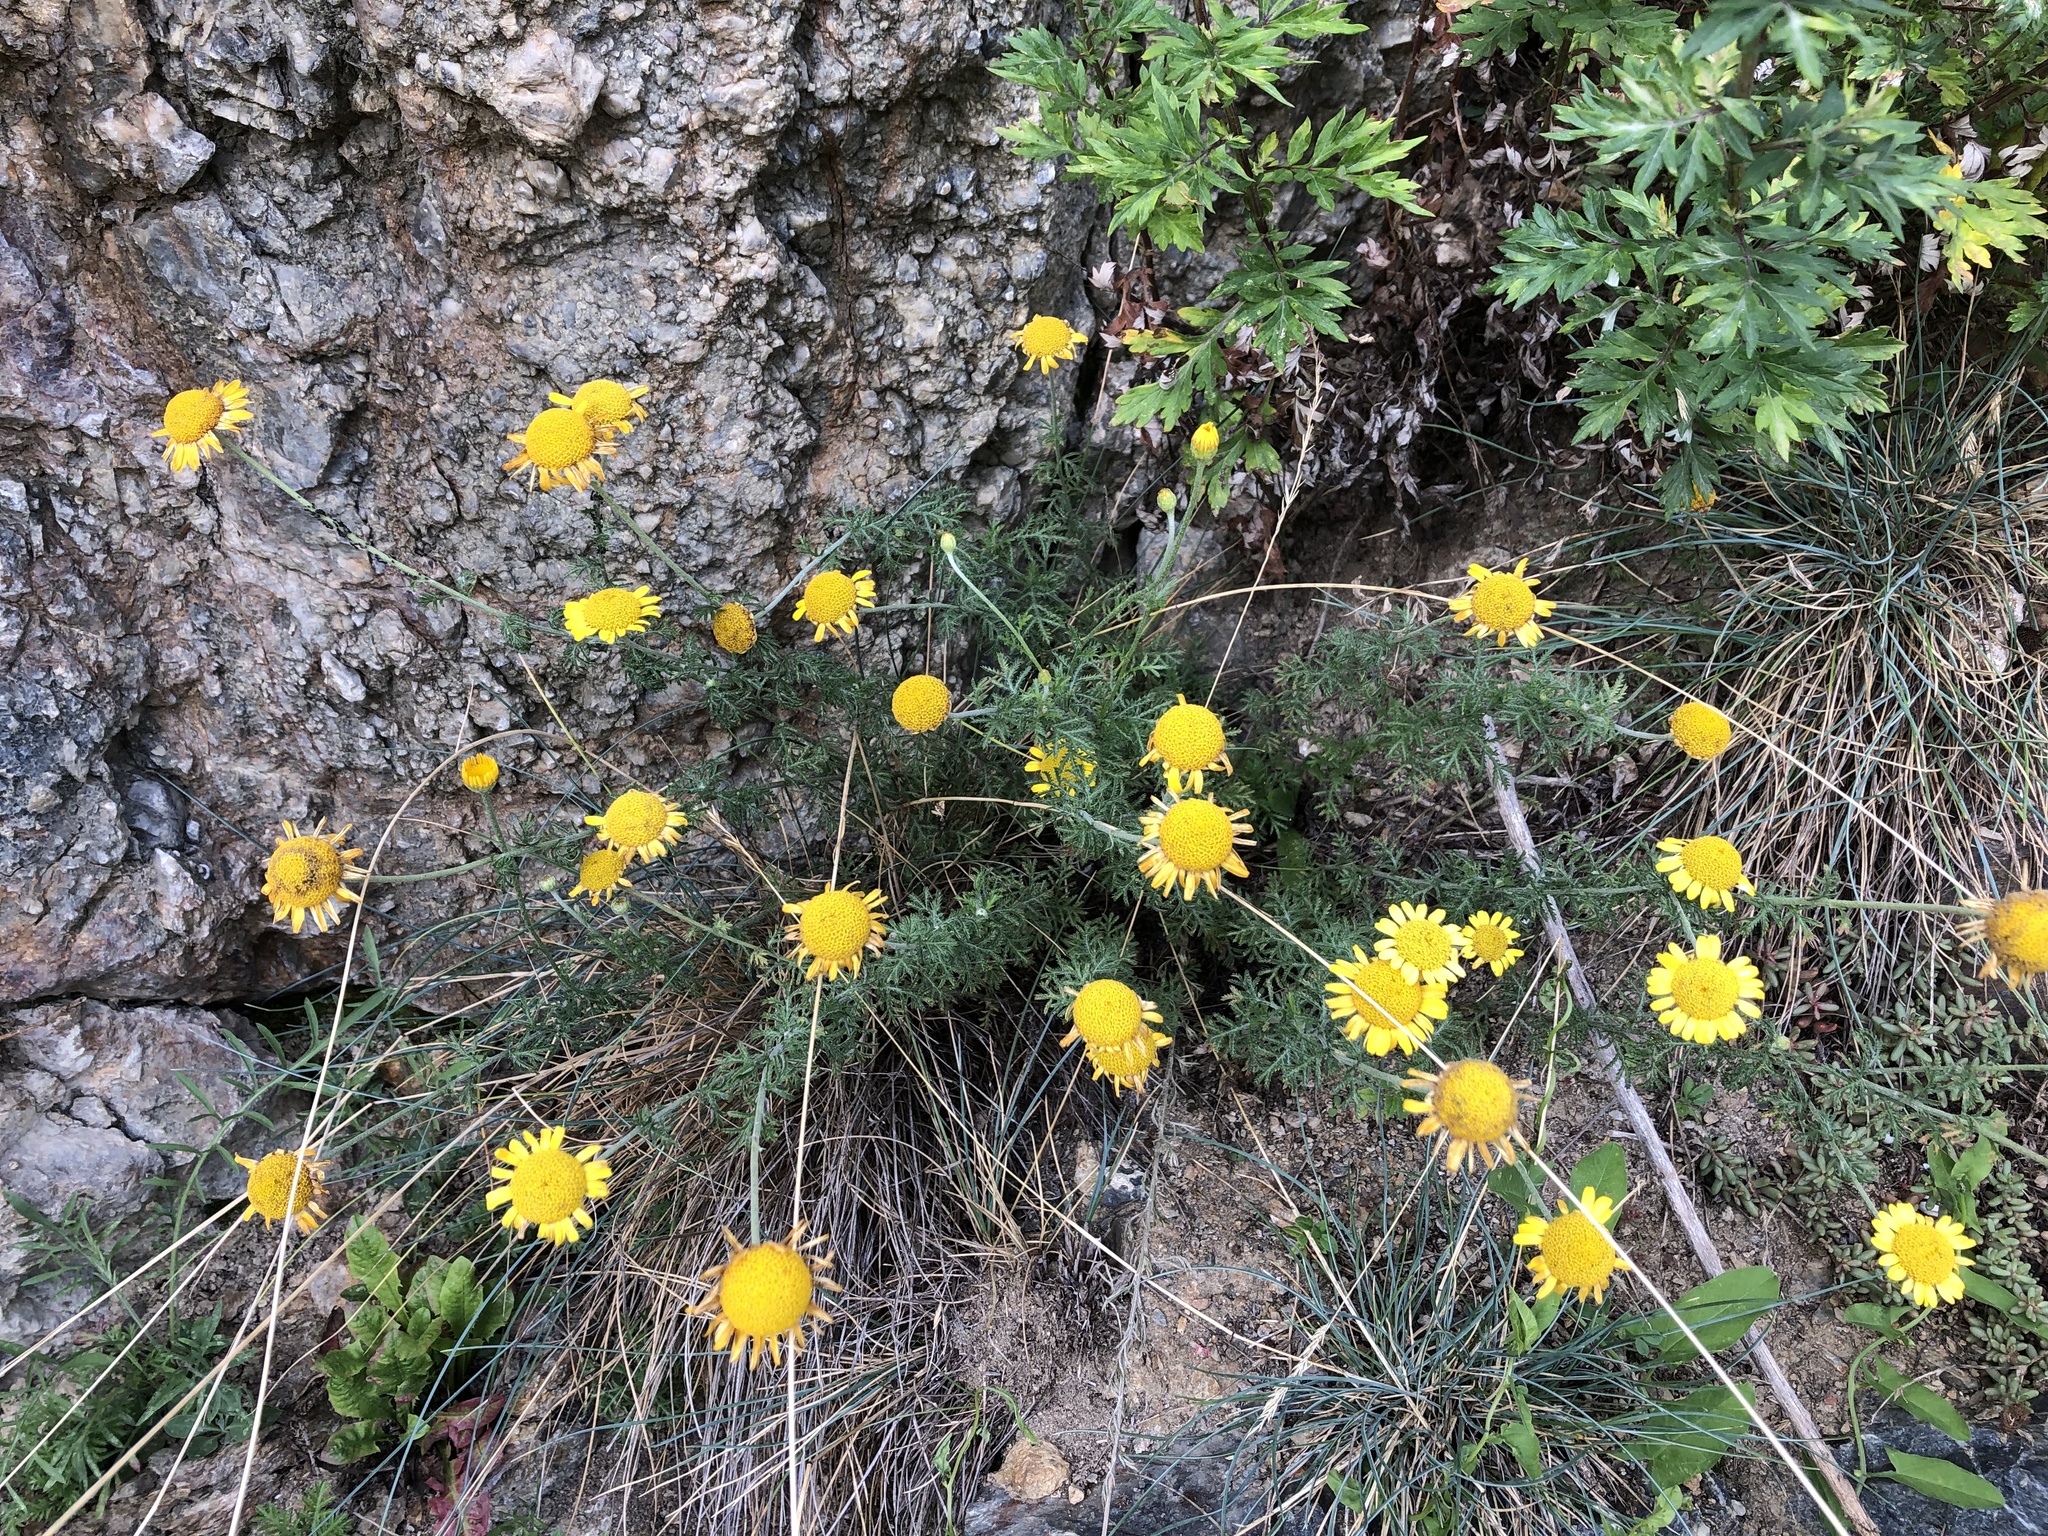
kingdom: Plantae
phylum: Tracheophyta
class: Magnoliopsida
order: Asterales
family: Asteraceae
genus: Cota
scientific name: Cota tinctoria
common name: Golden chamomile
